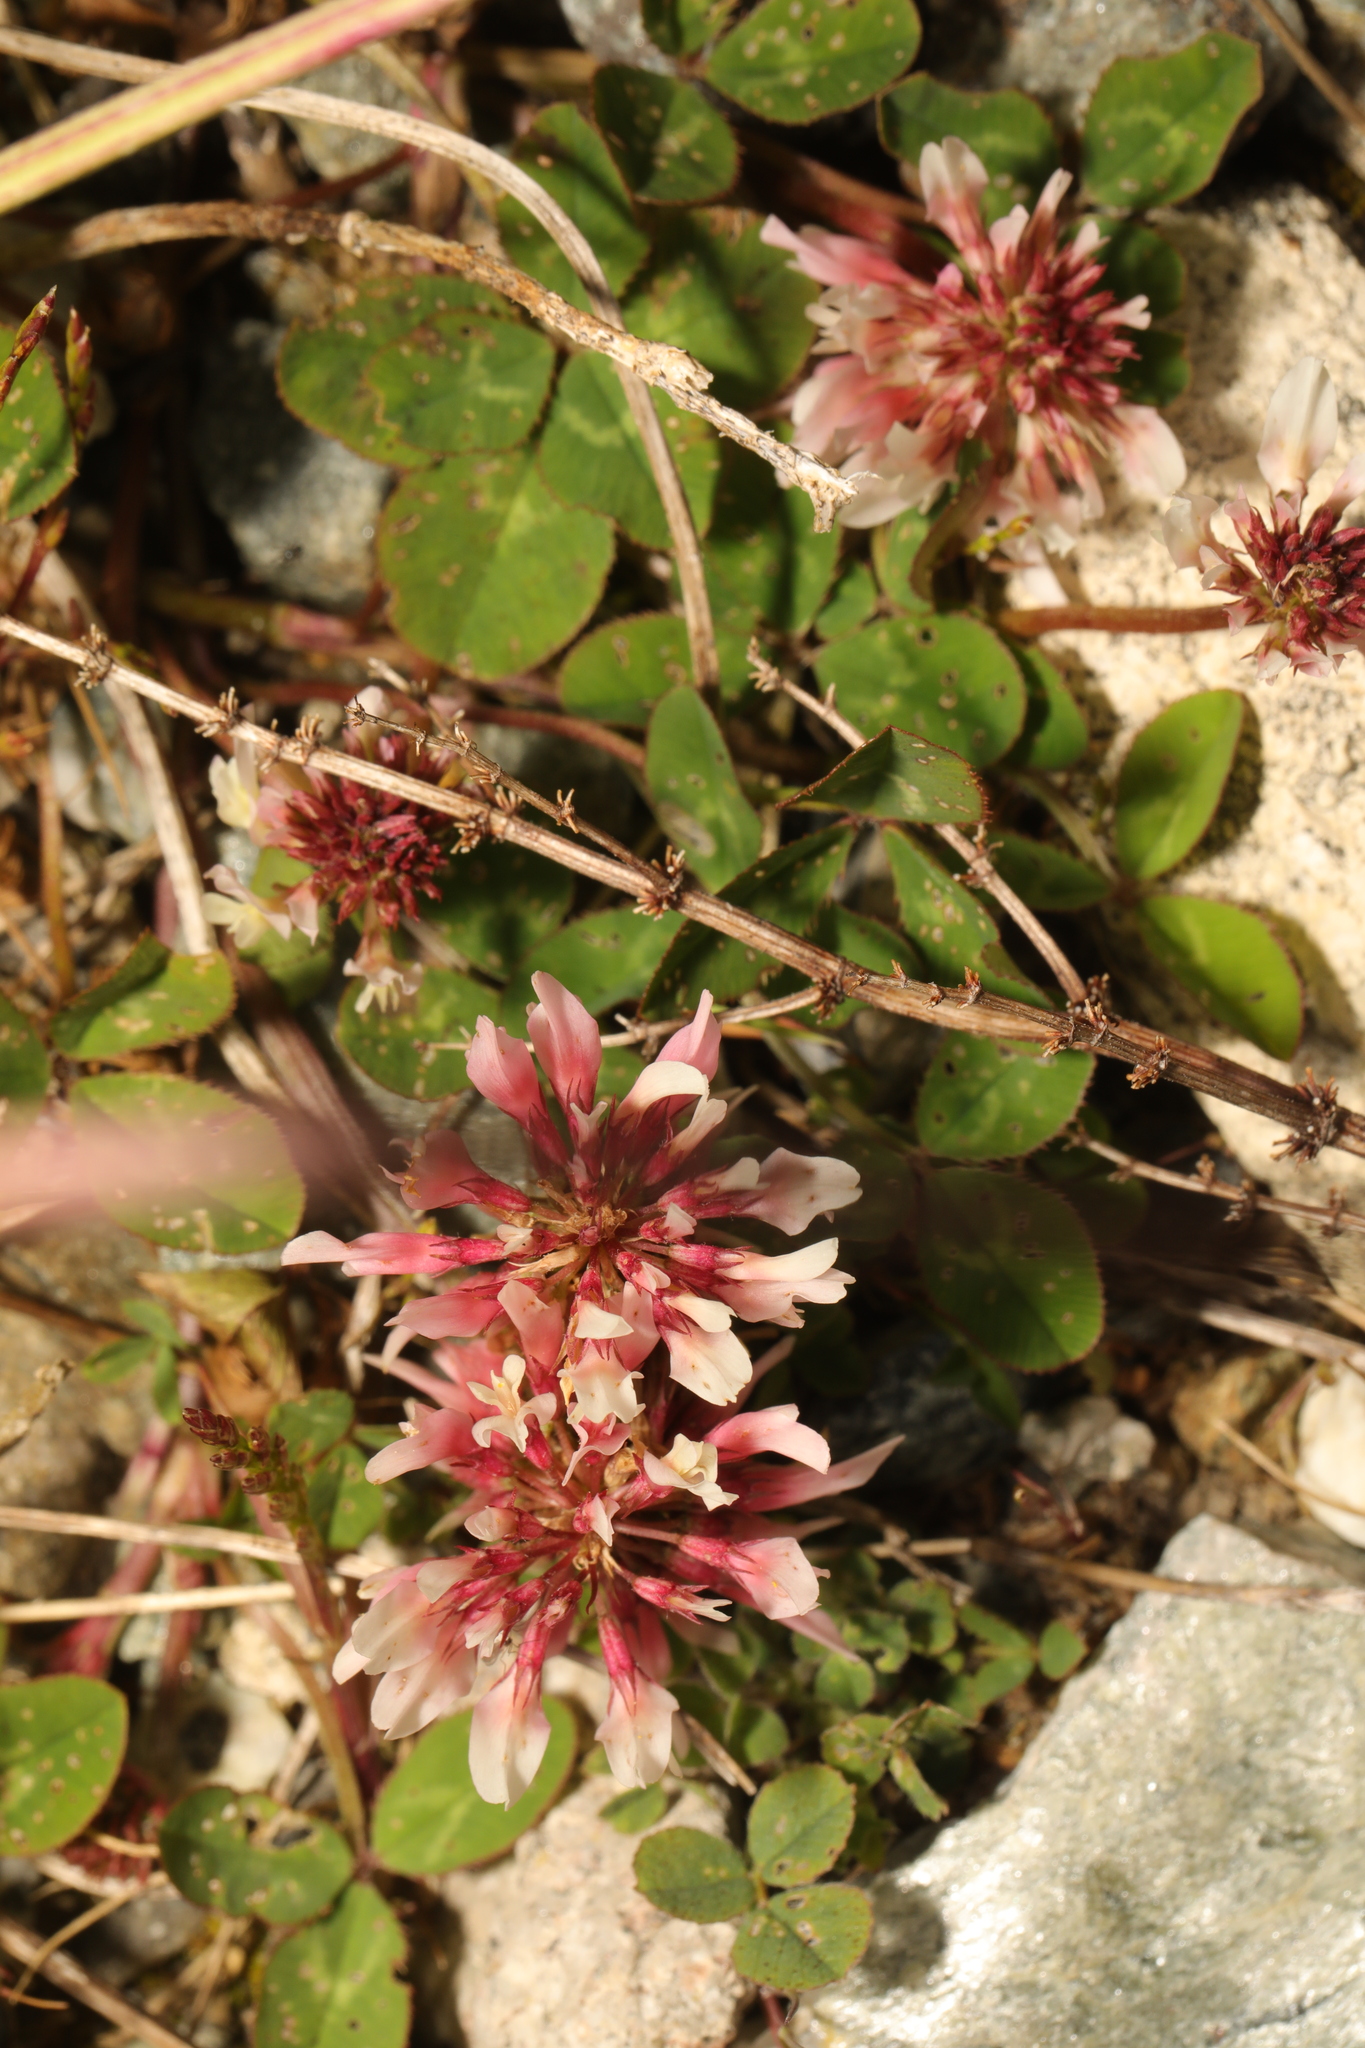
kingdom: Plantae
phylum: Tracheophyta
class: Magnoliopsida
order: Fabales
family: Fabaceae
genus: Trifolium
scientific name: Trifolium repens
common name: White clover
